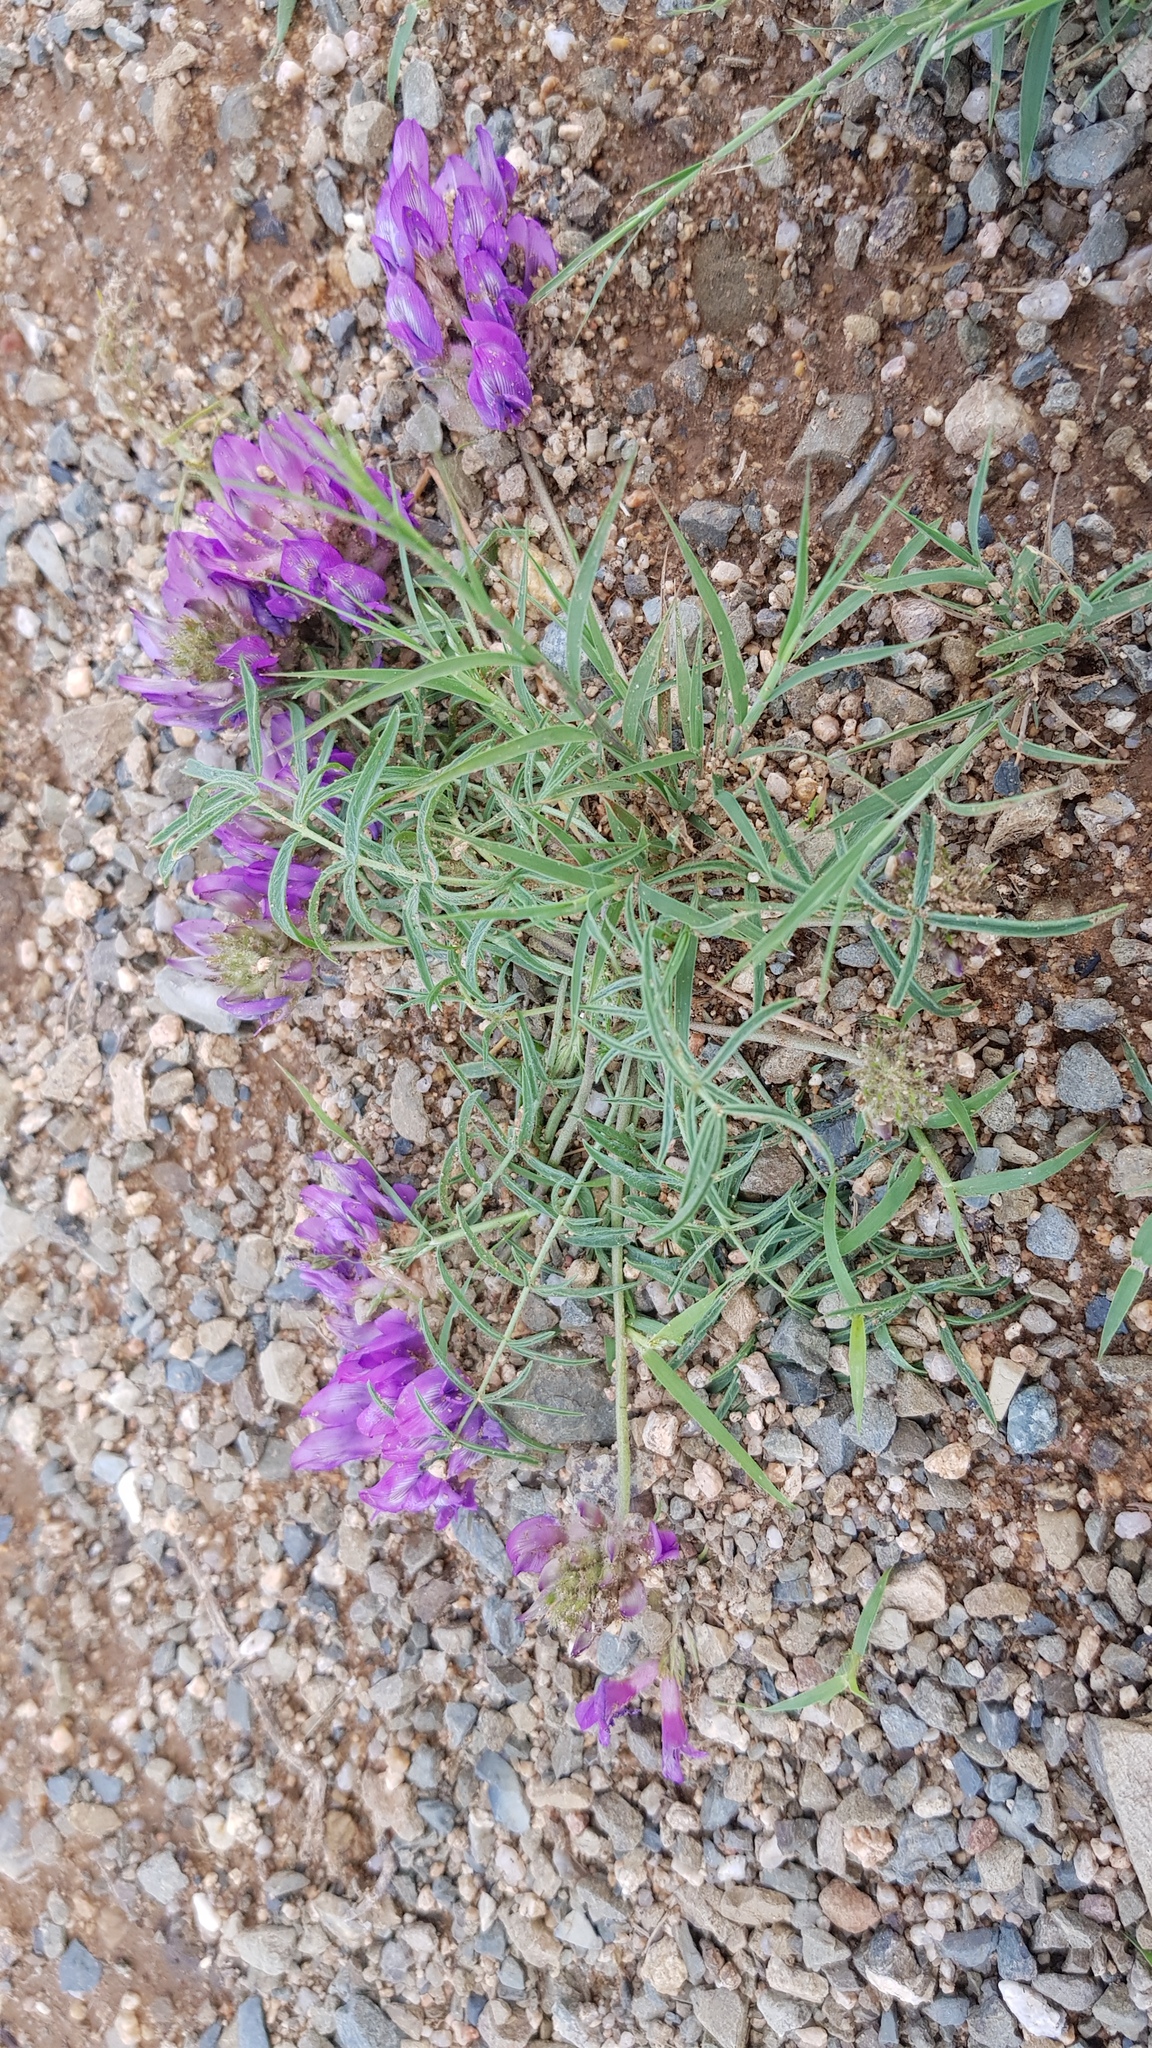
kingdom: Plantae
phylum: Tracheophyta
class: Magnoliopsida
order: Fabales
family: Fabaceae
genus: Oxytropis
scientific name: Oxytropis pumila
